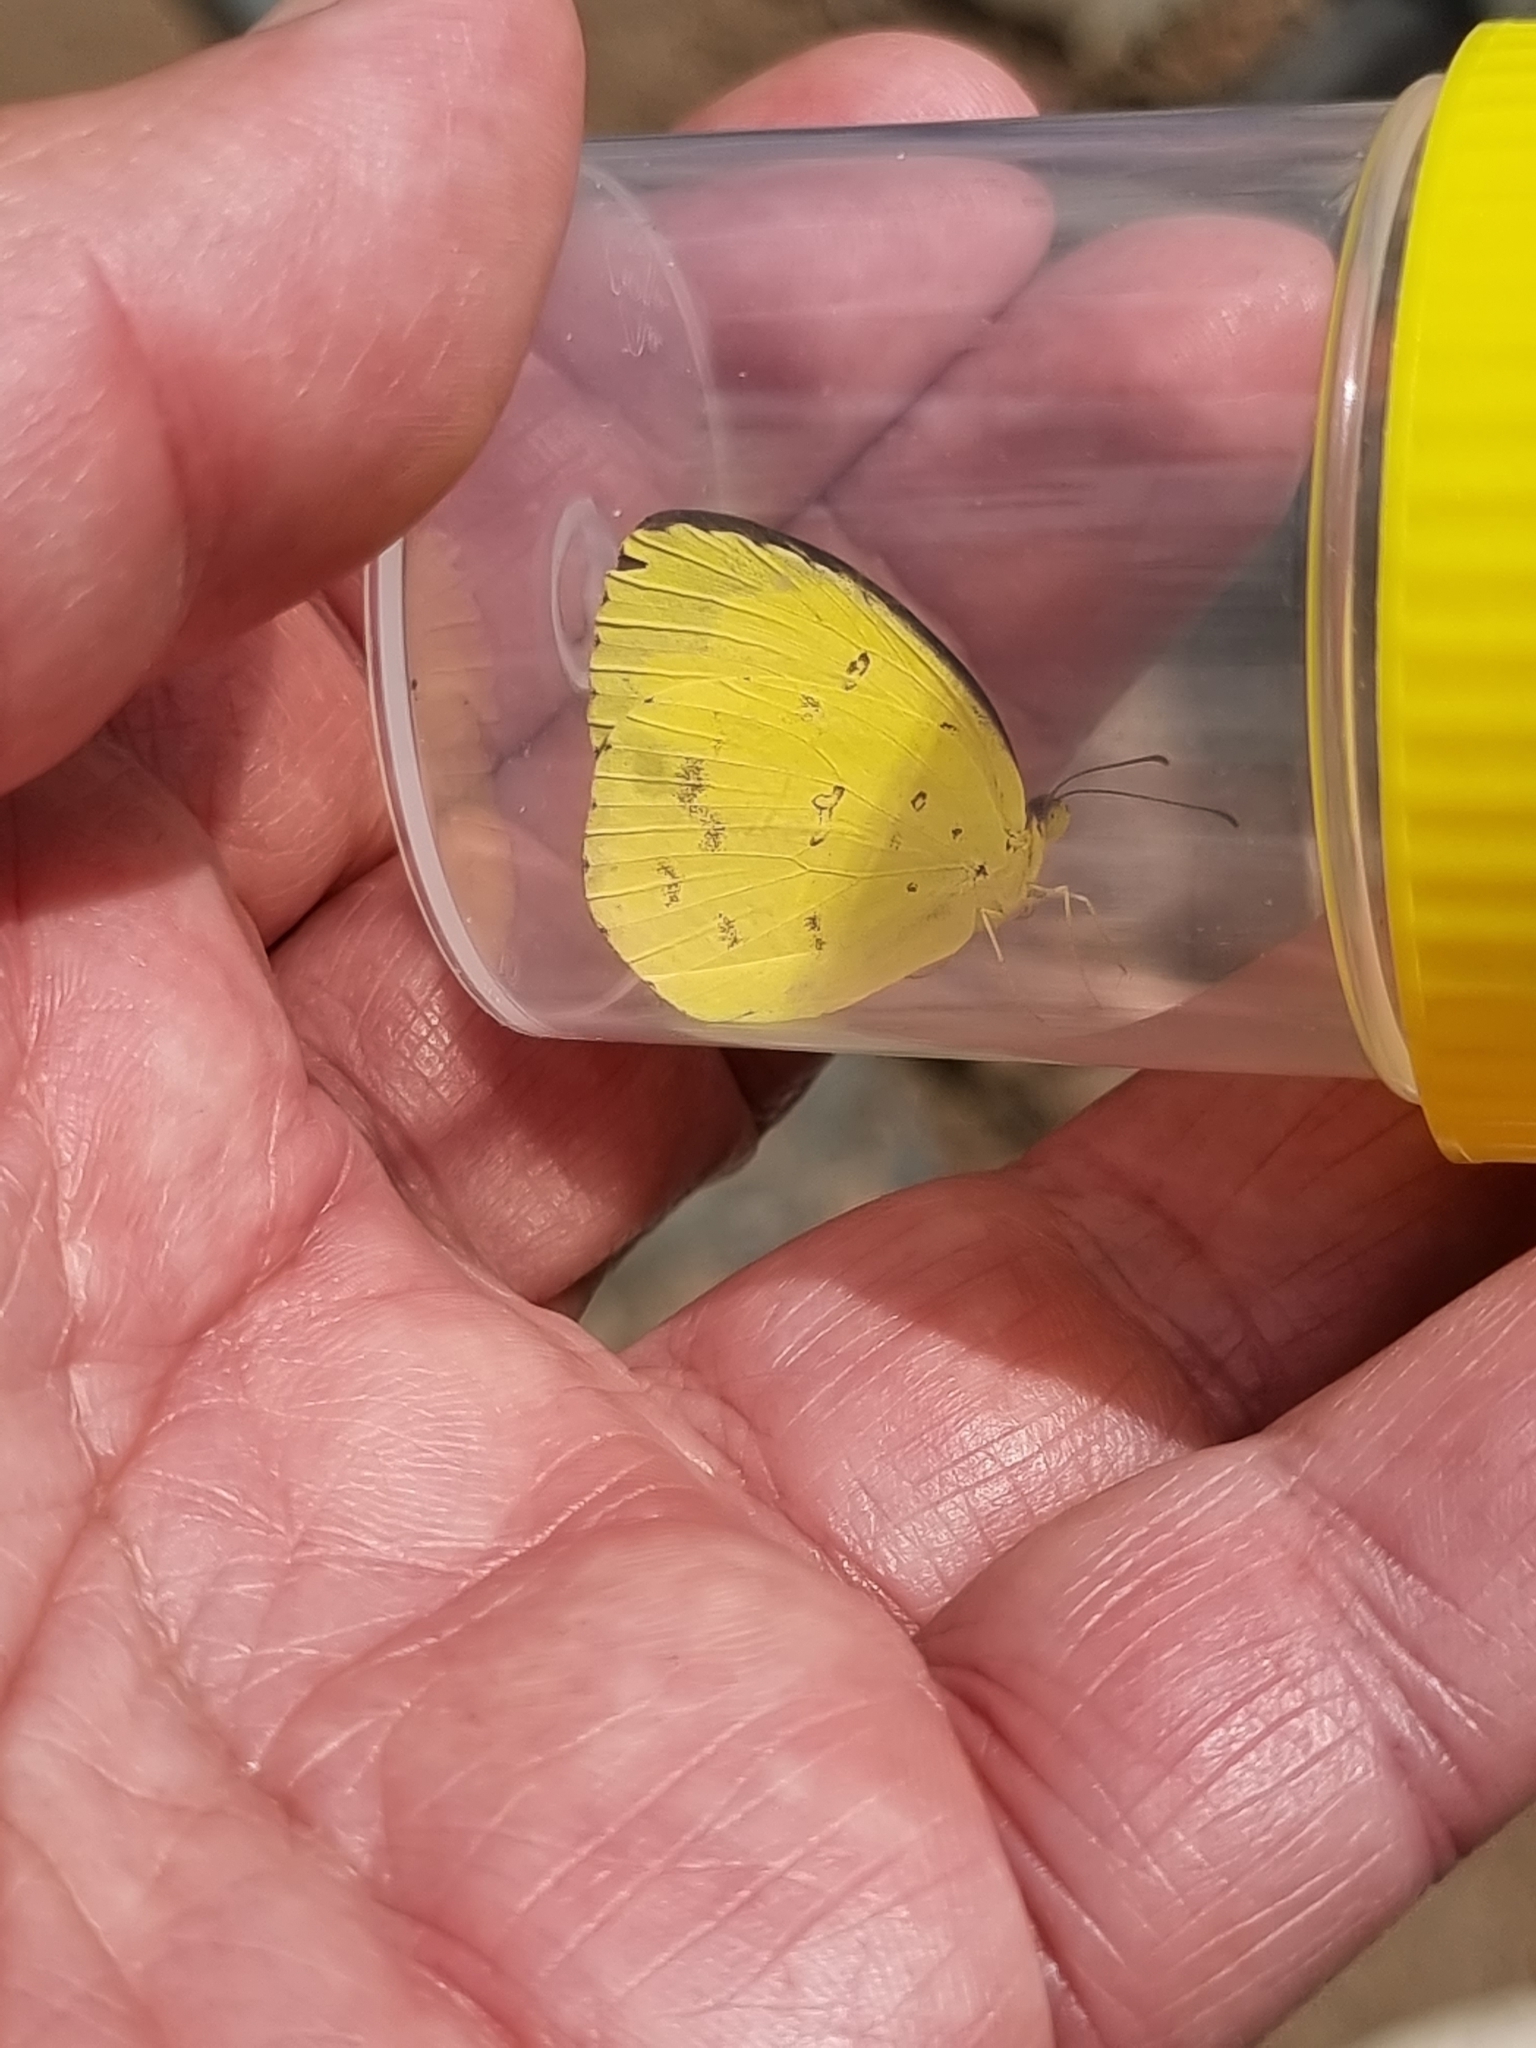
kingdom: Animalia
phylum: Arthropoda
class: Insecta
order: Lepidoptera
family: Pieridae
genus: Eurema
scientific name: Eurema smilax
